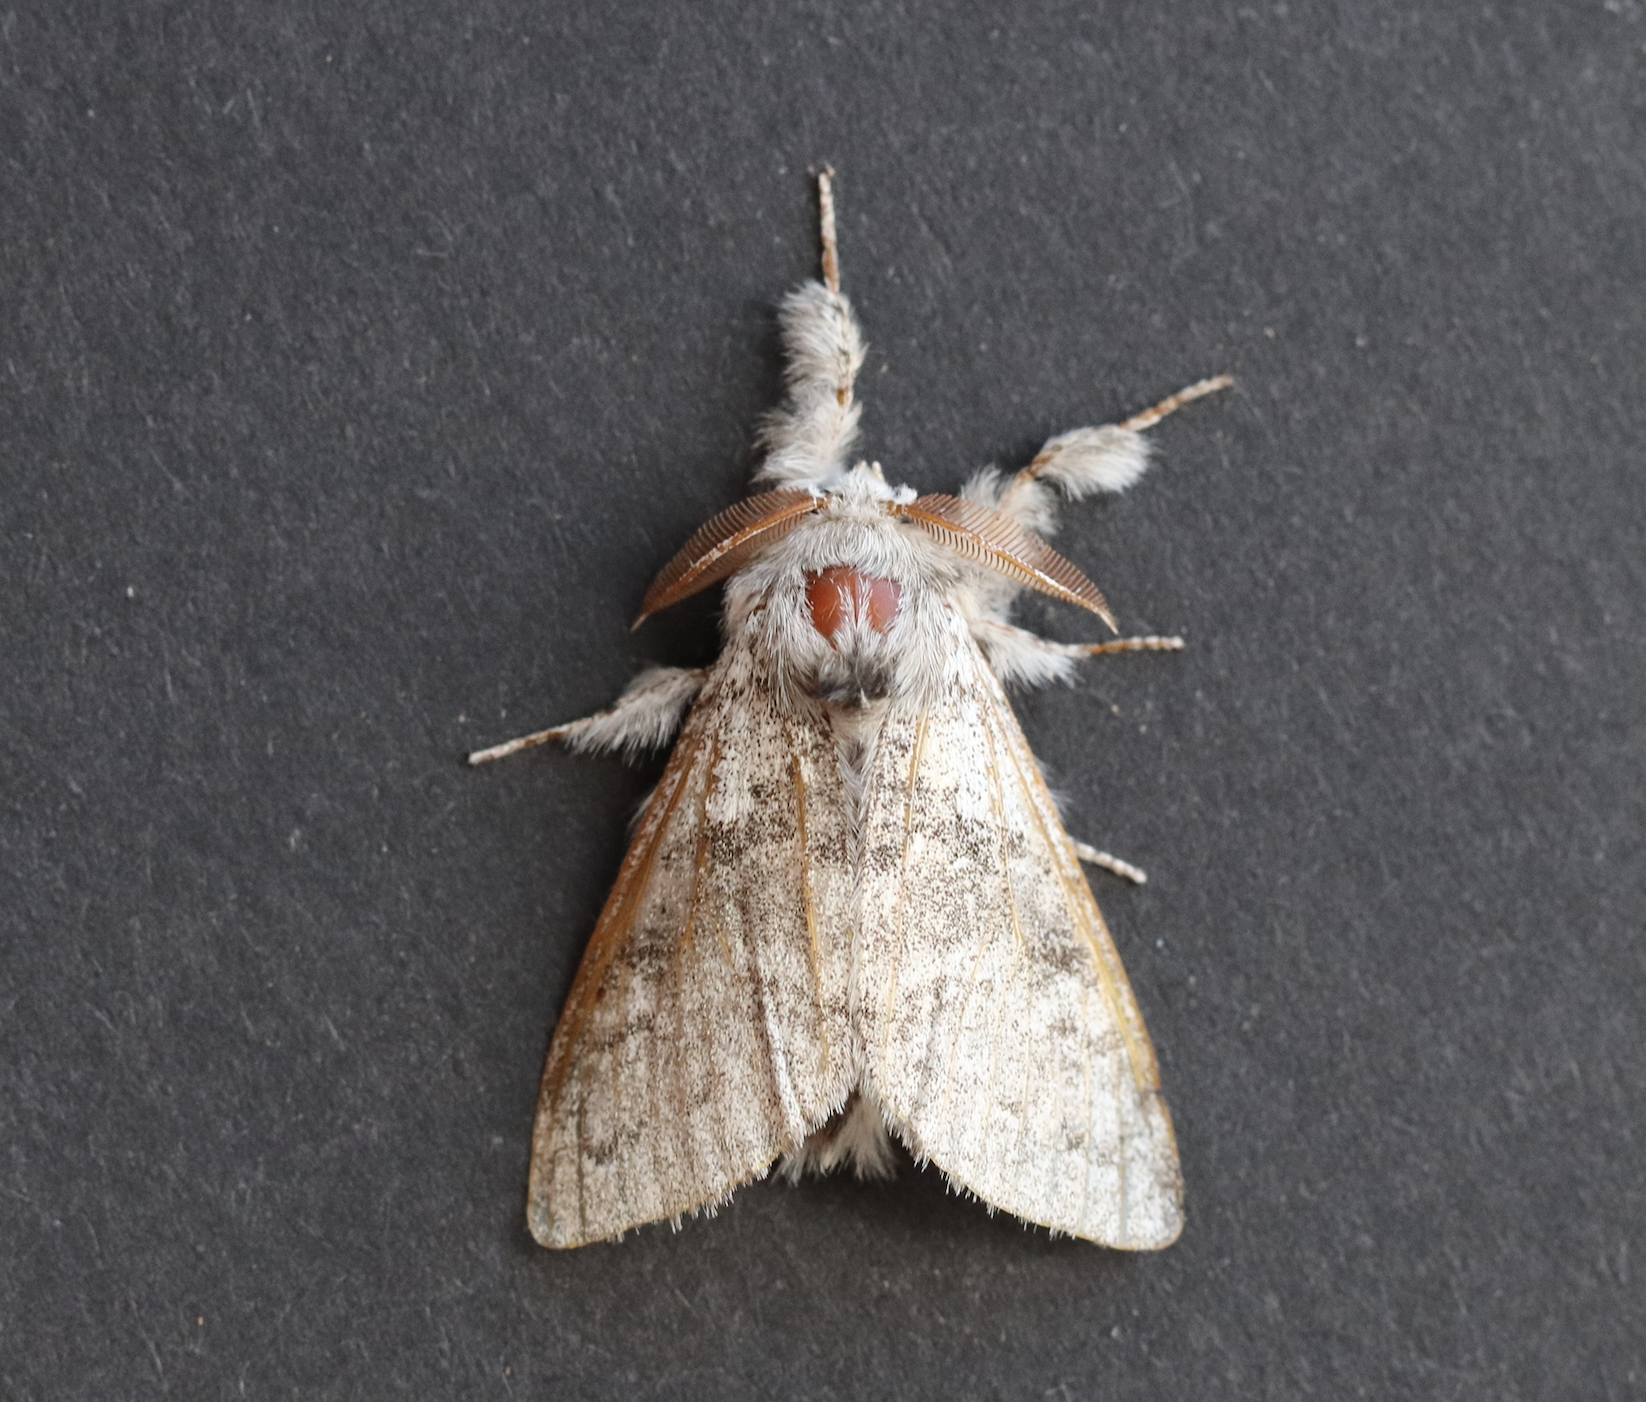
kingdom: Animalia
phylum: Arthropoda
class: Insecta
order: Lepidoptera
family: Erebidae
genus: Calliteara
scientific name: Calliteara pudibunda
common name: Pale tussock
